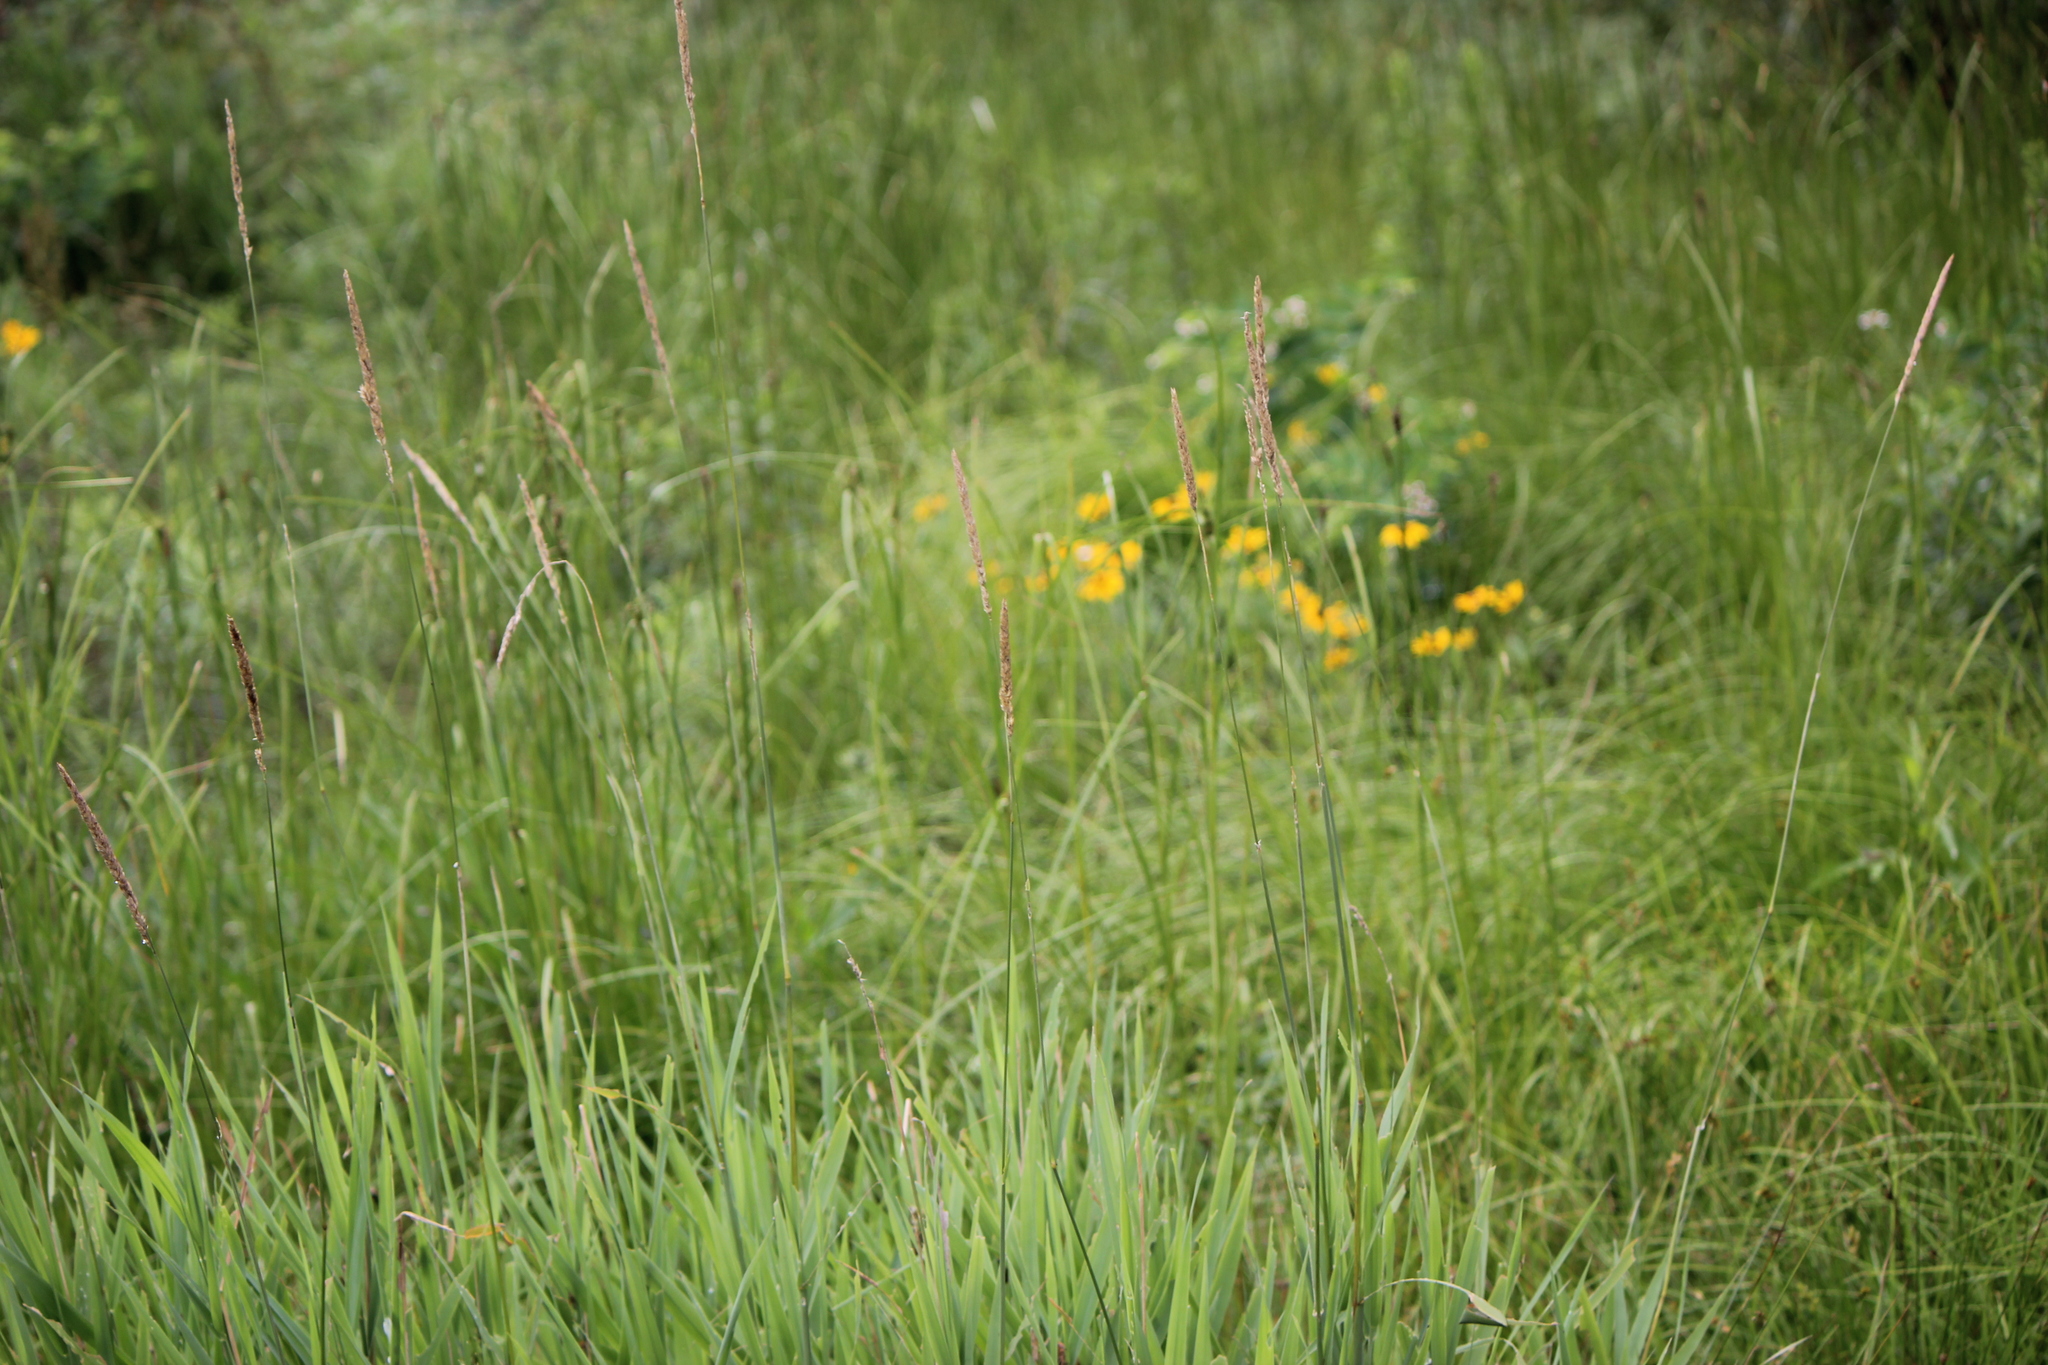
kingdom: Plantae
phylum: Tracheophyta
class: Liliopsida
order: Poales
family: Poaceae
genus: Phalaris
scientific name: Phalaris arundinacea
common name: Reed canary-grass
